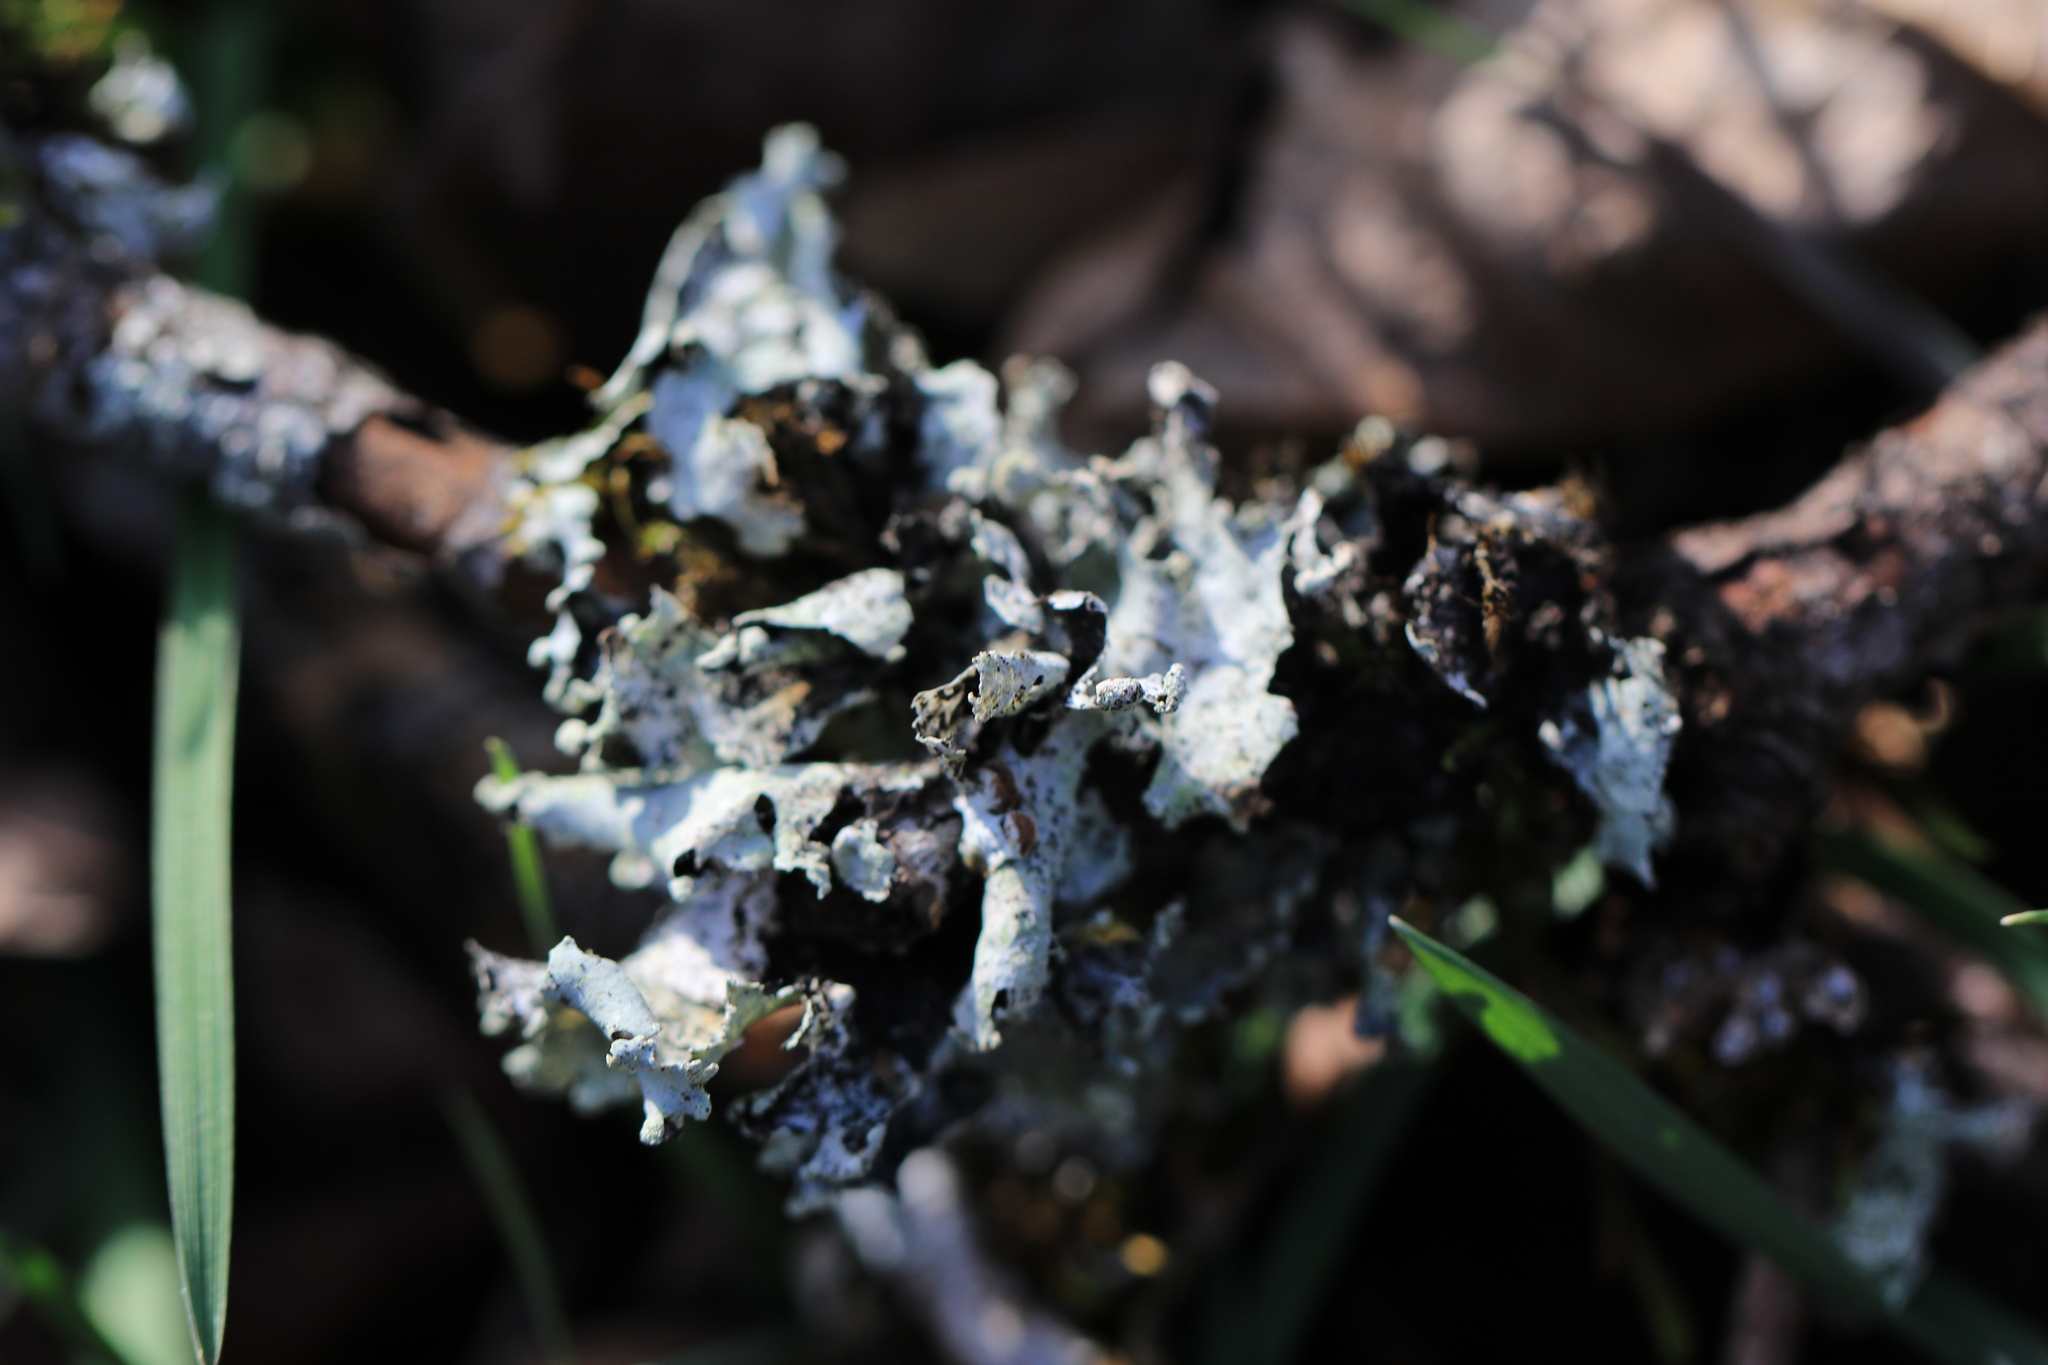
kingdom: Fungi
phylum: Ascomycota
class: Lecanoromycetes
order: Lecanorales
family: Parmeliaceae
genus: Parmotrema
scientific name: Parmotrema perlatum
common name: Black stone flower
